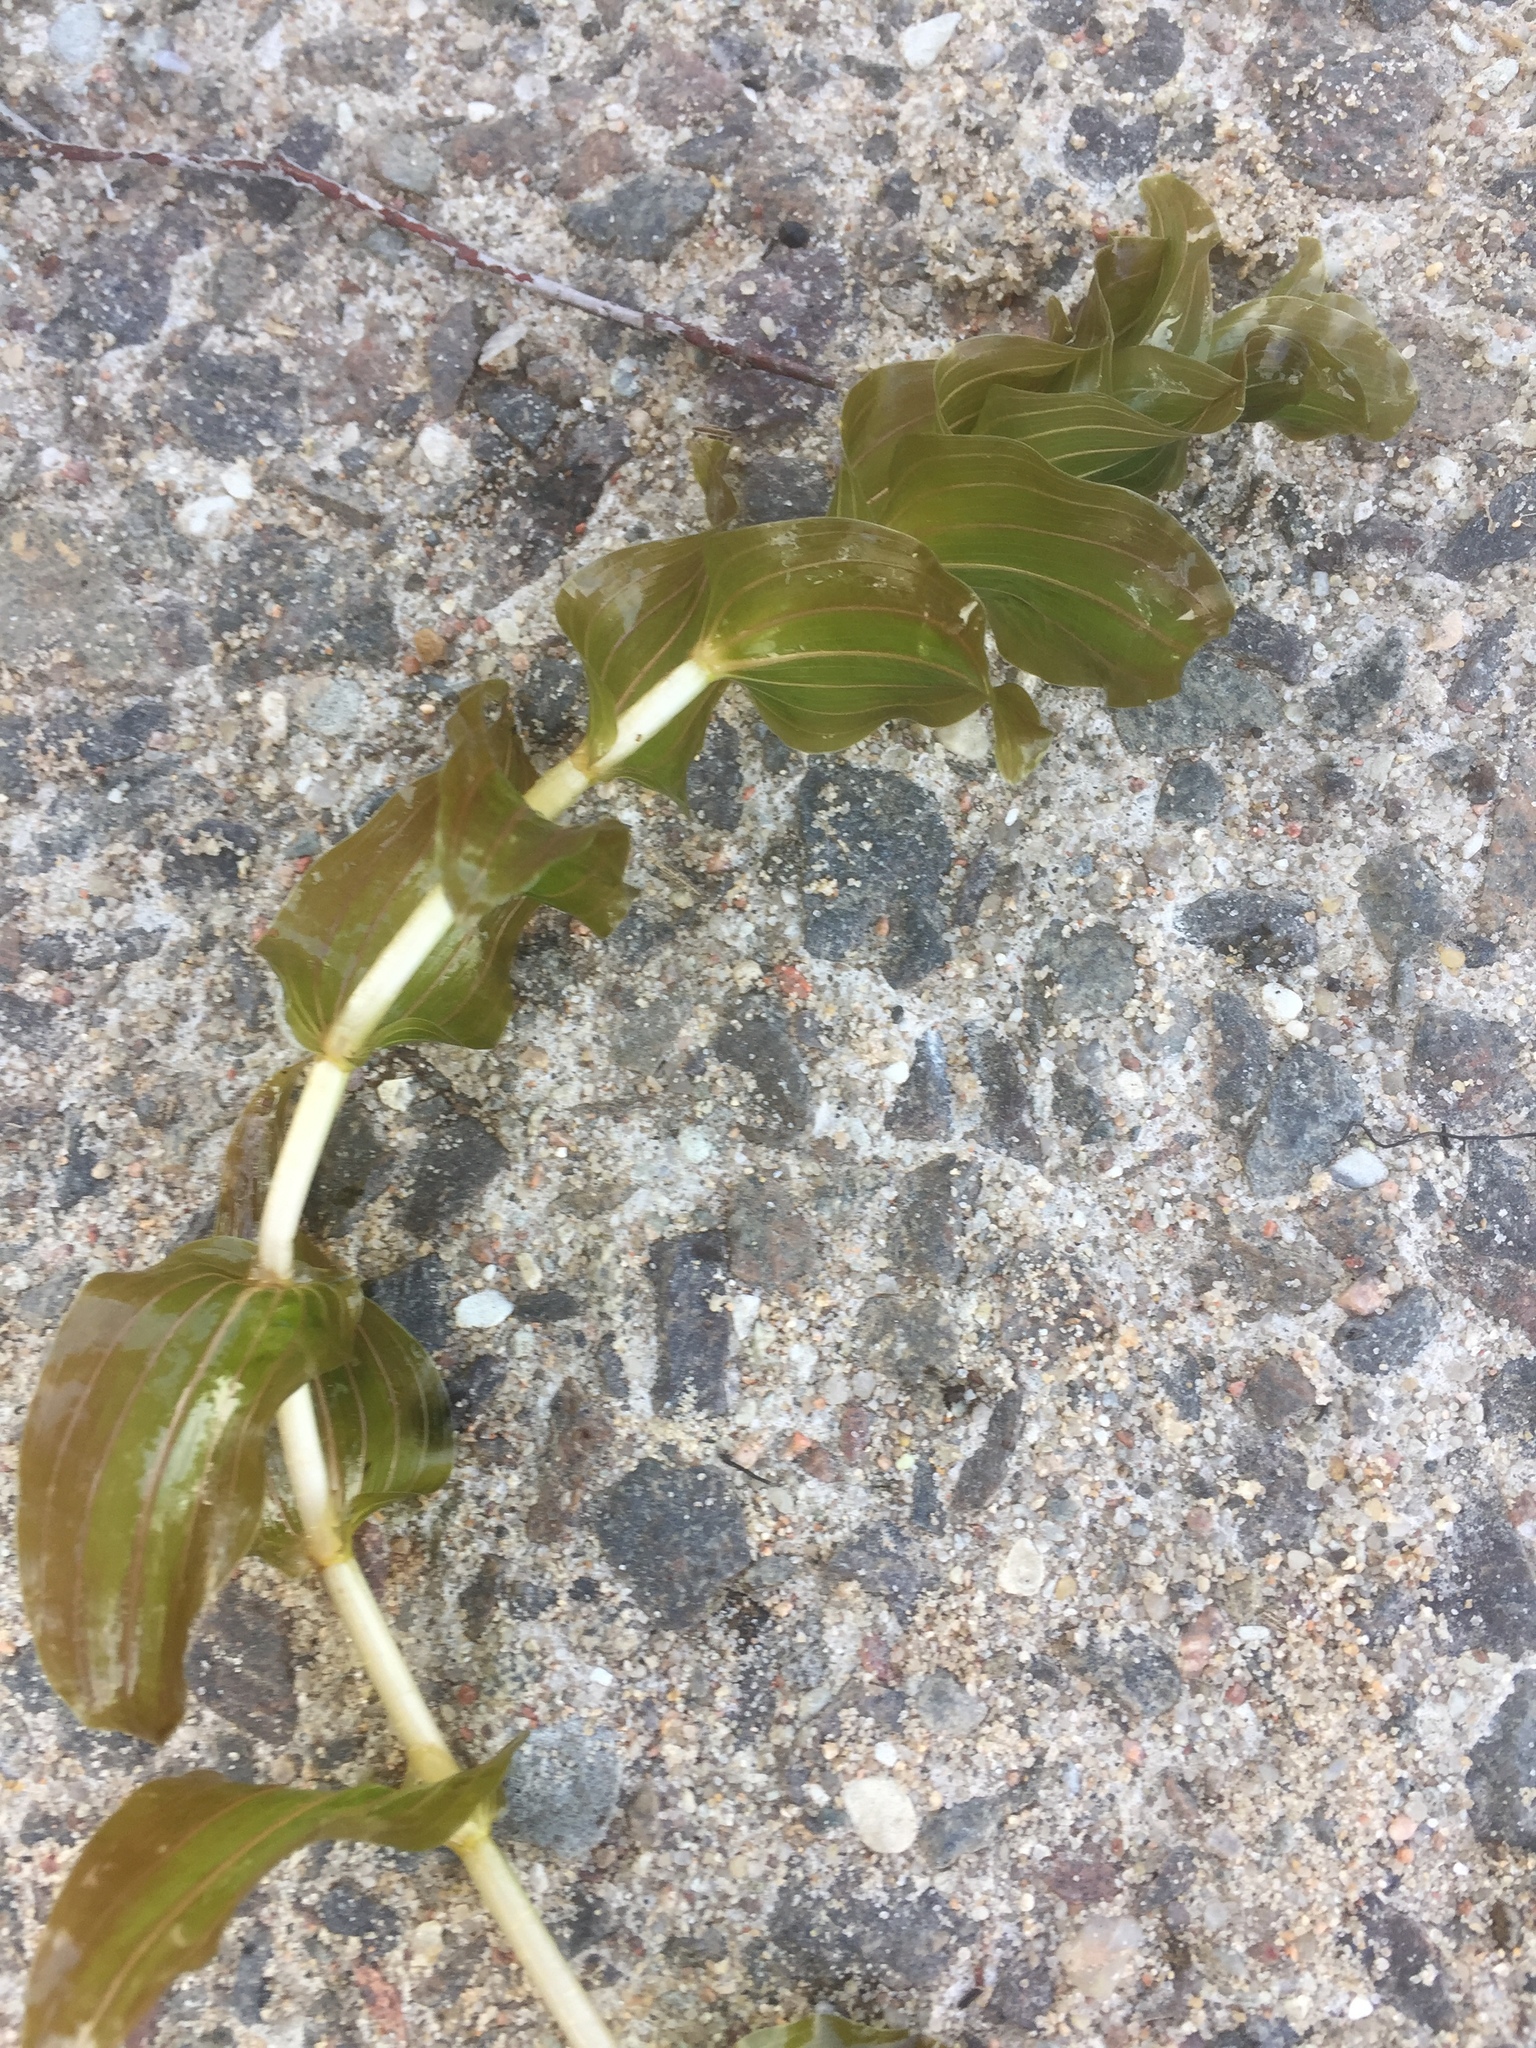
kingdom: Plantae
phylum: Tracheophyta
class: Liliopsida
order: Alismatales
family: Potamogetonaceae
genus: Potamogeton
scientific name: Potamogeton perfoliatus
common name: Perfoliate pondweed
